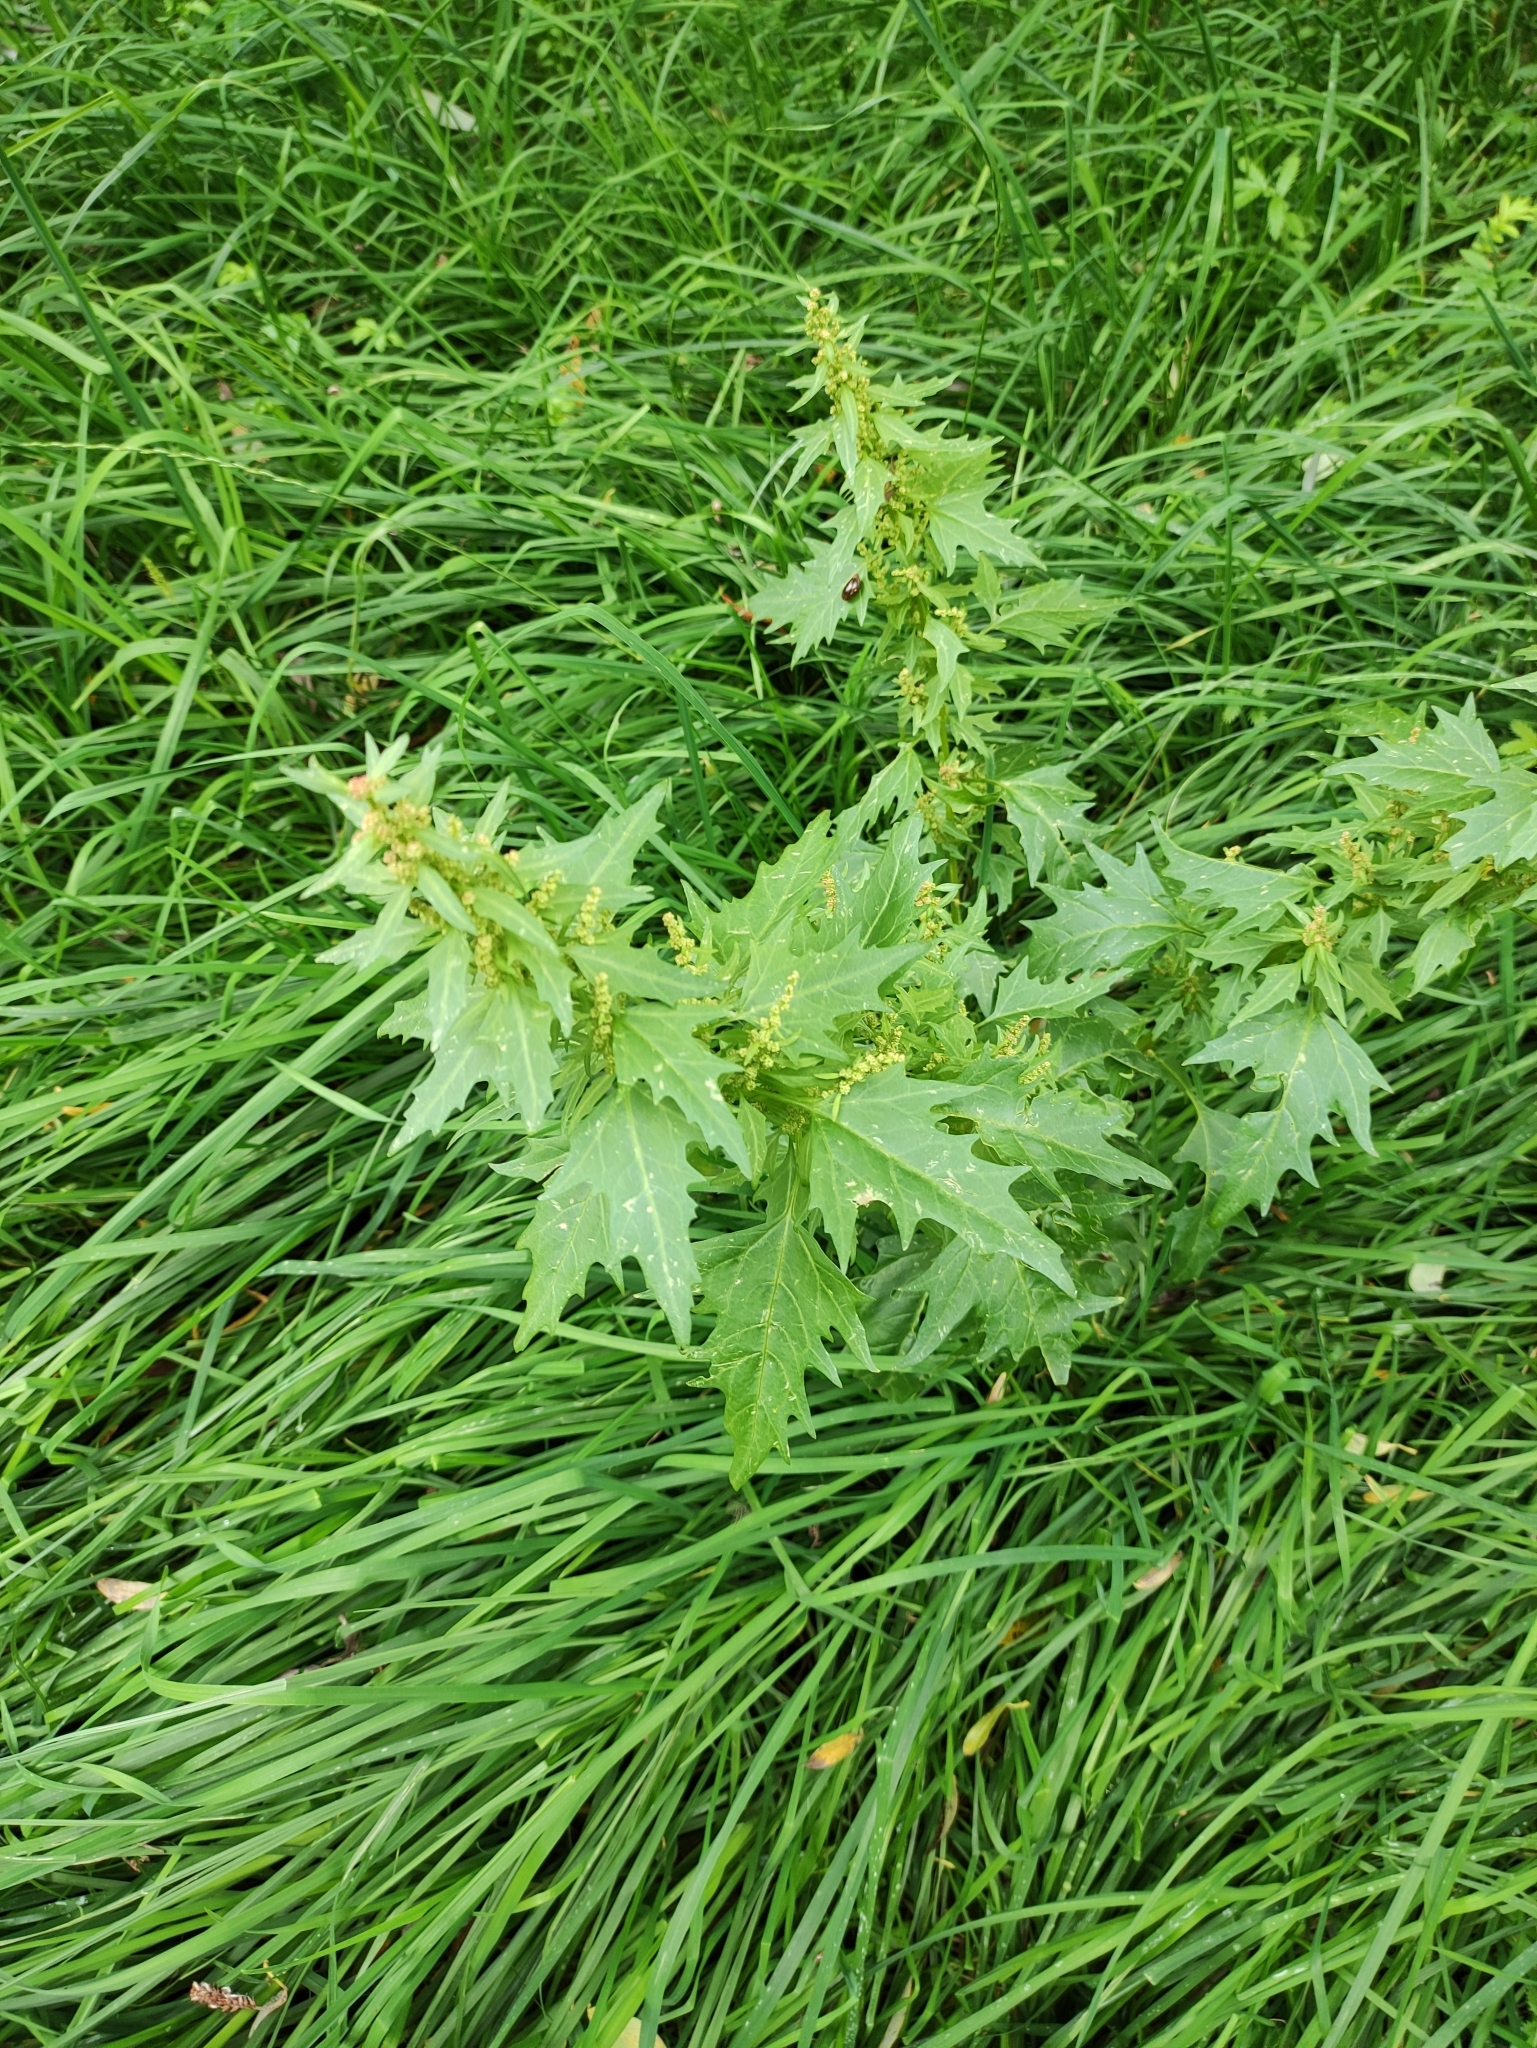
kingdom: Plantae
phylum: Tracheophyta
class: Magnoliopsida
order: Caryophyllales
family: Amaranthaceae
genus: Oxybasis
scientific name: Oxybasis rubra
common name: Red goosefoot
